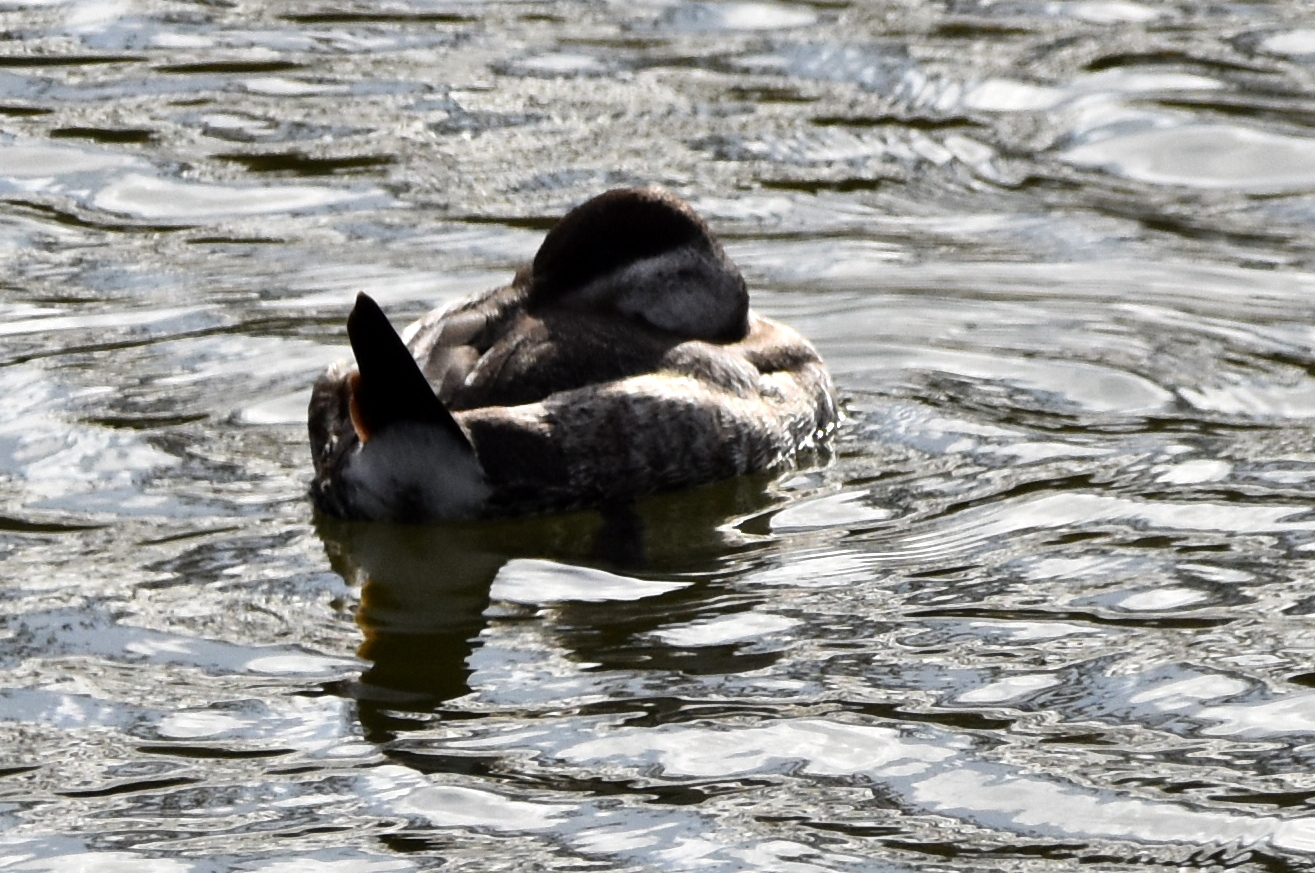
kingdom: Animalia
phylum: Chordata
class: Aves
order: Anseriformes
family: Anatidae
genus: Oxyura
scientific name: Oxyura jamaicensis
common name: Ruddy duck
